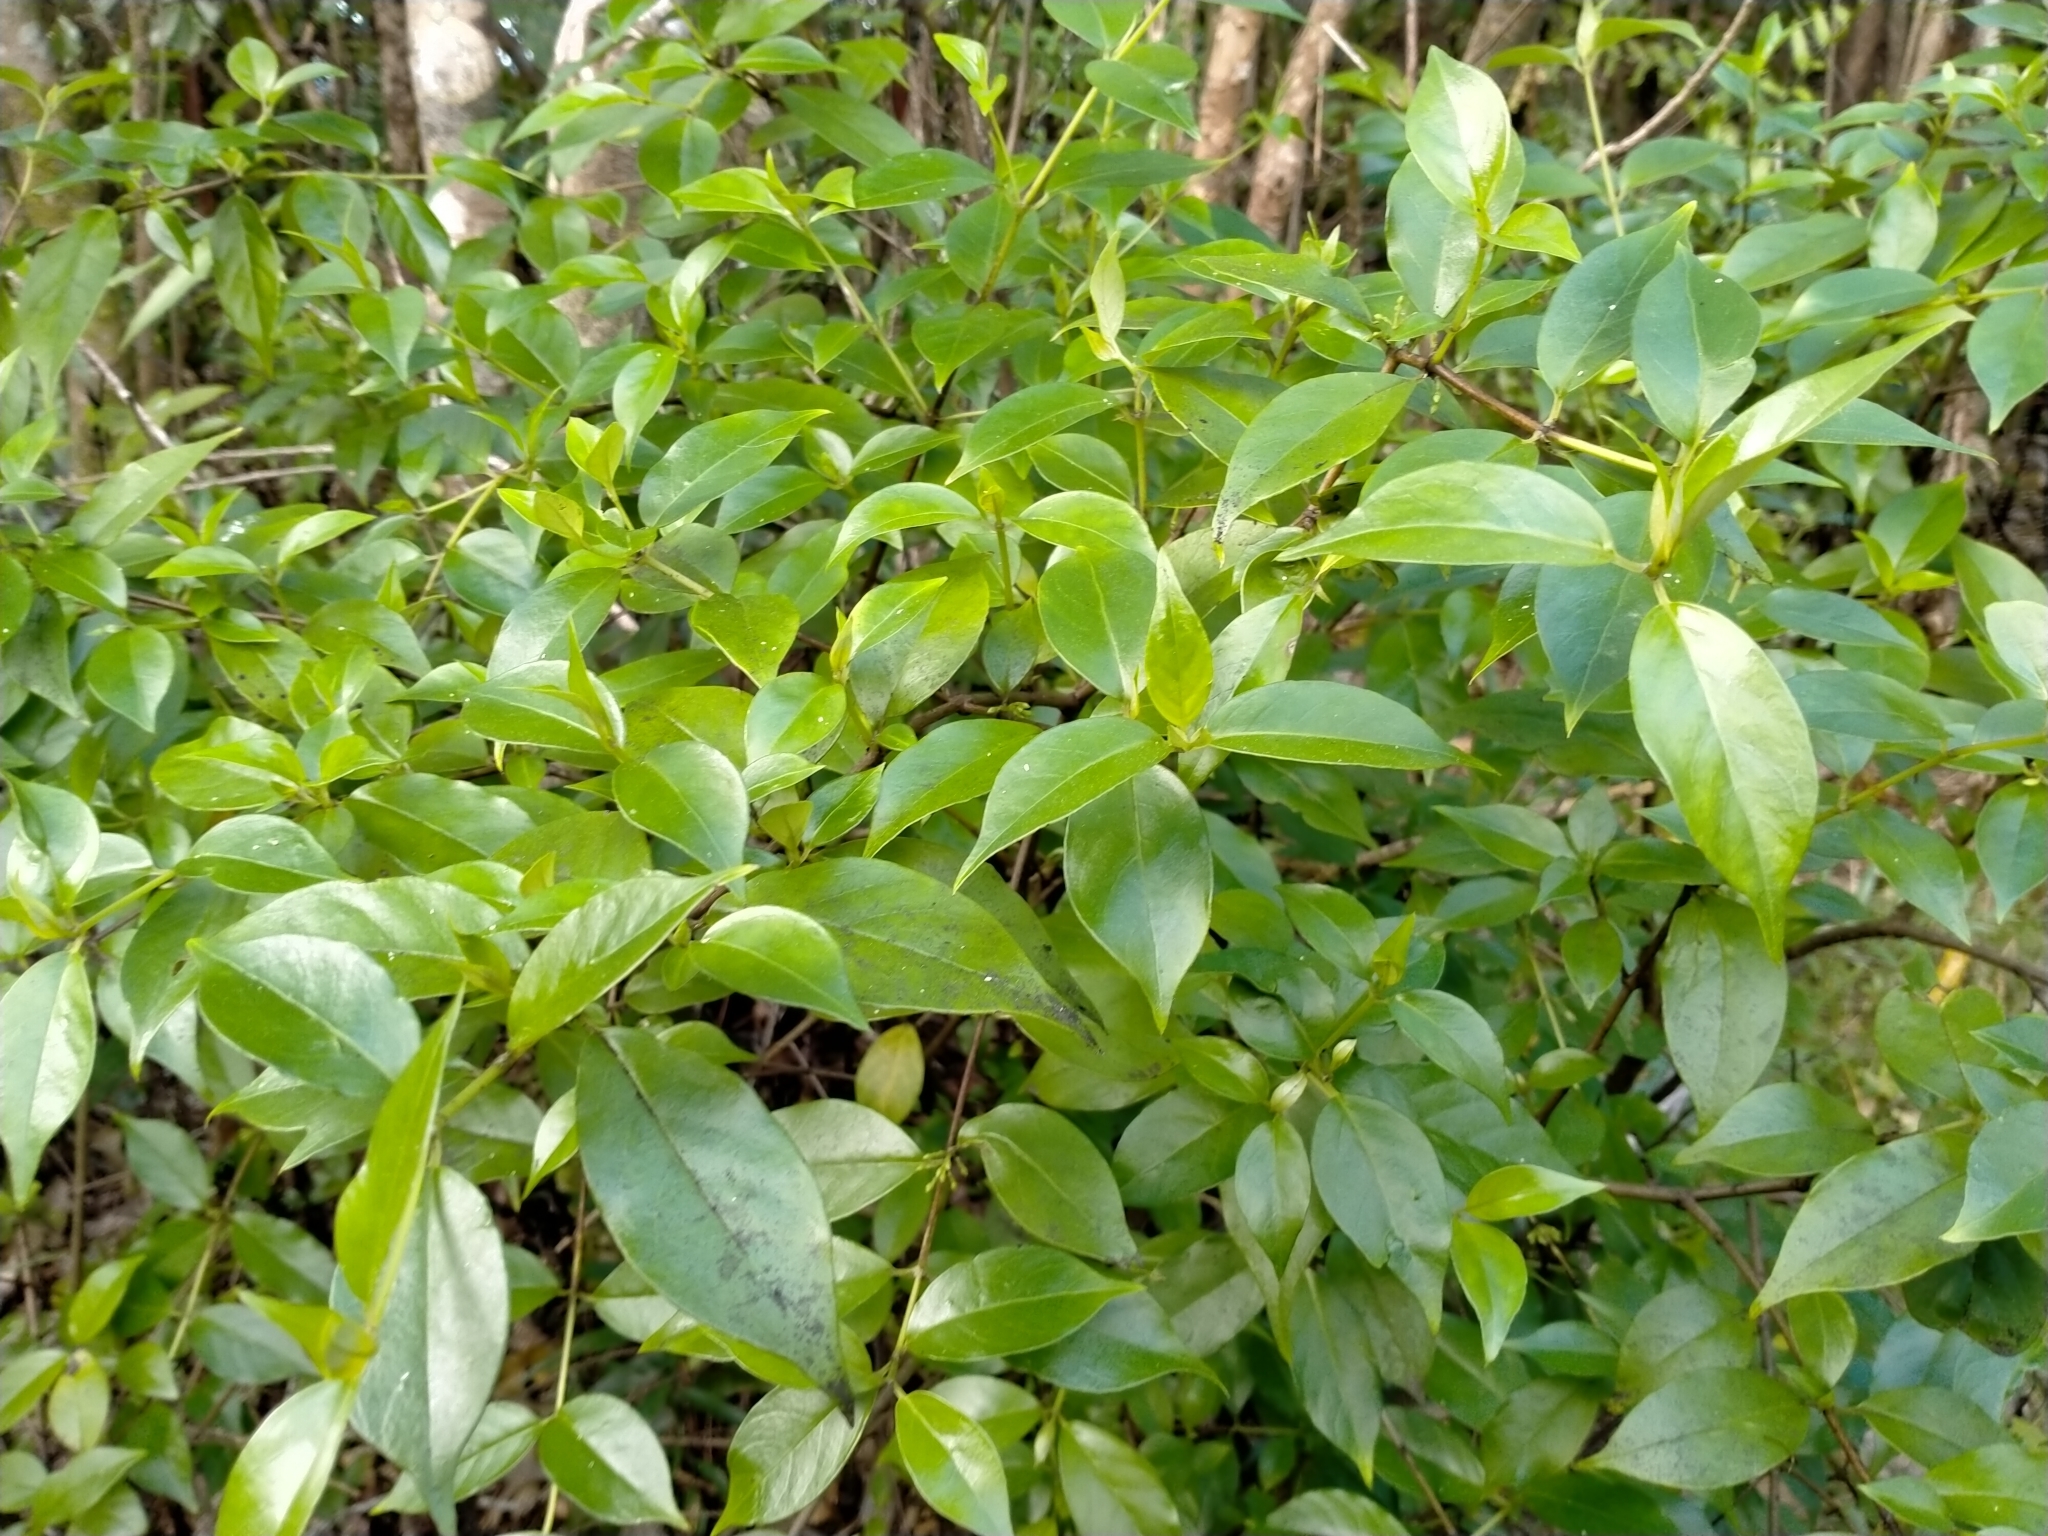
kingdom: Plantae
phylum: Tracheophyta
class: Magnoliopsida
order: Gentianales
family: Loganiaceae
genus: Geniostoma
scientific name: Geniostoma ligustrifolium
